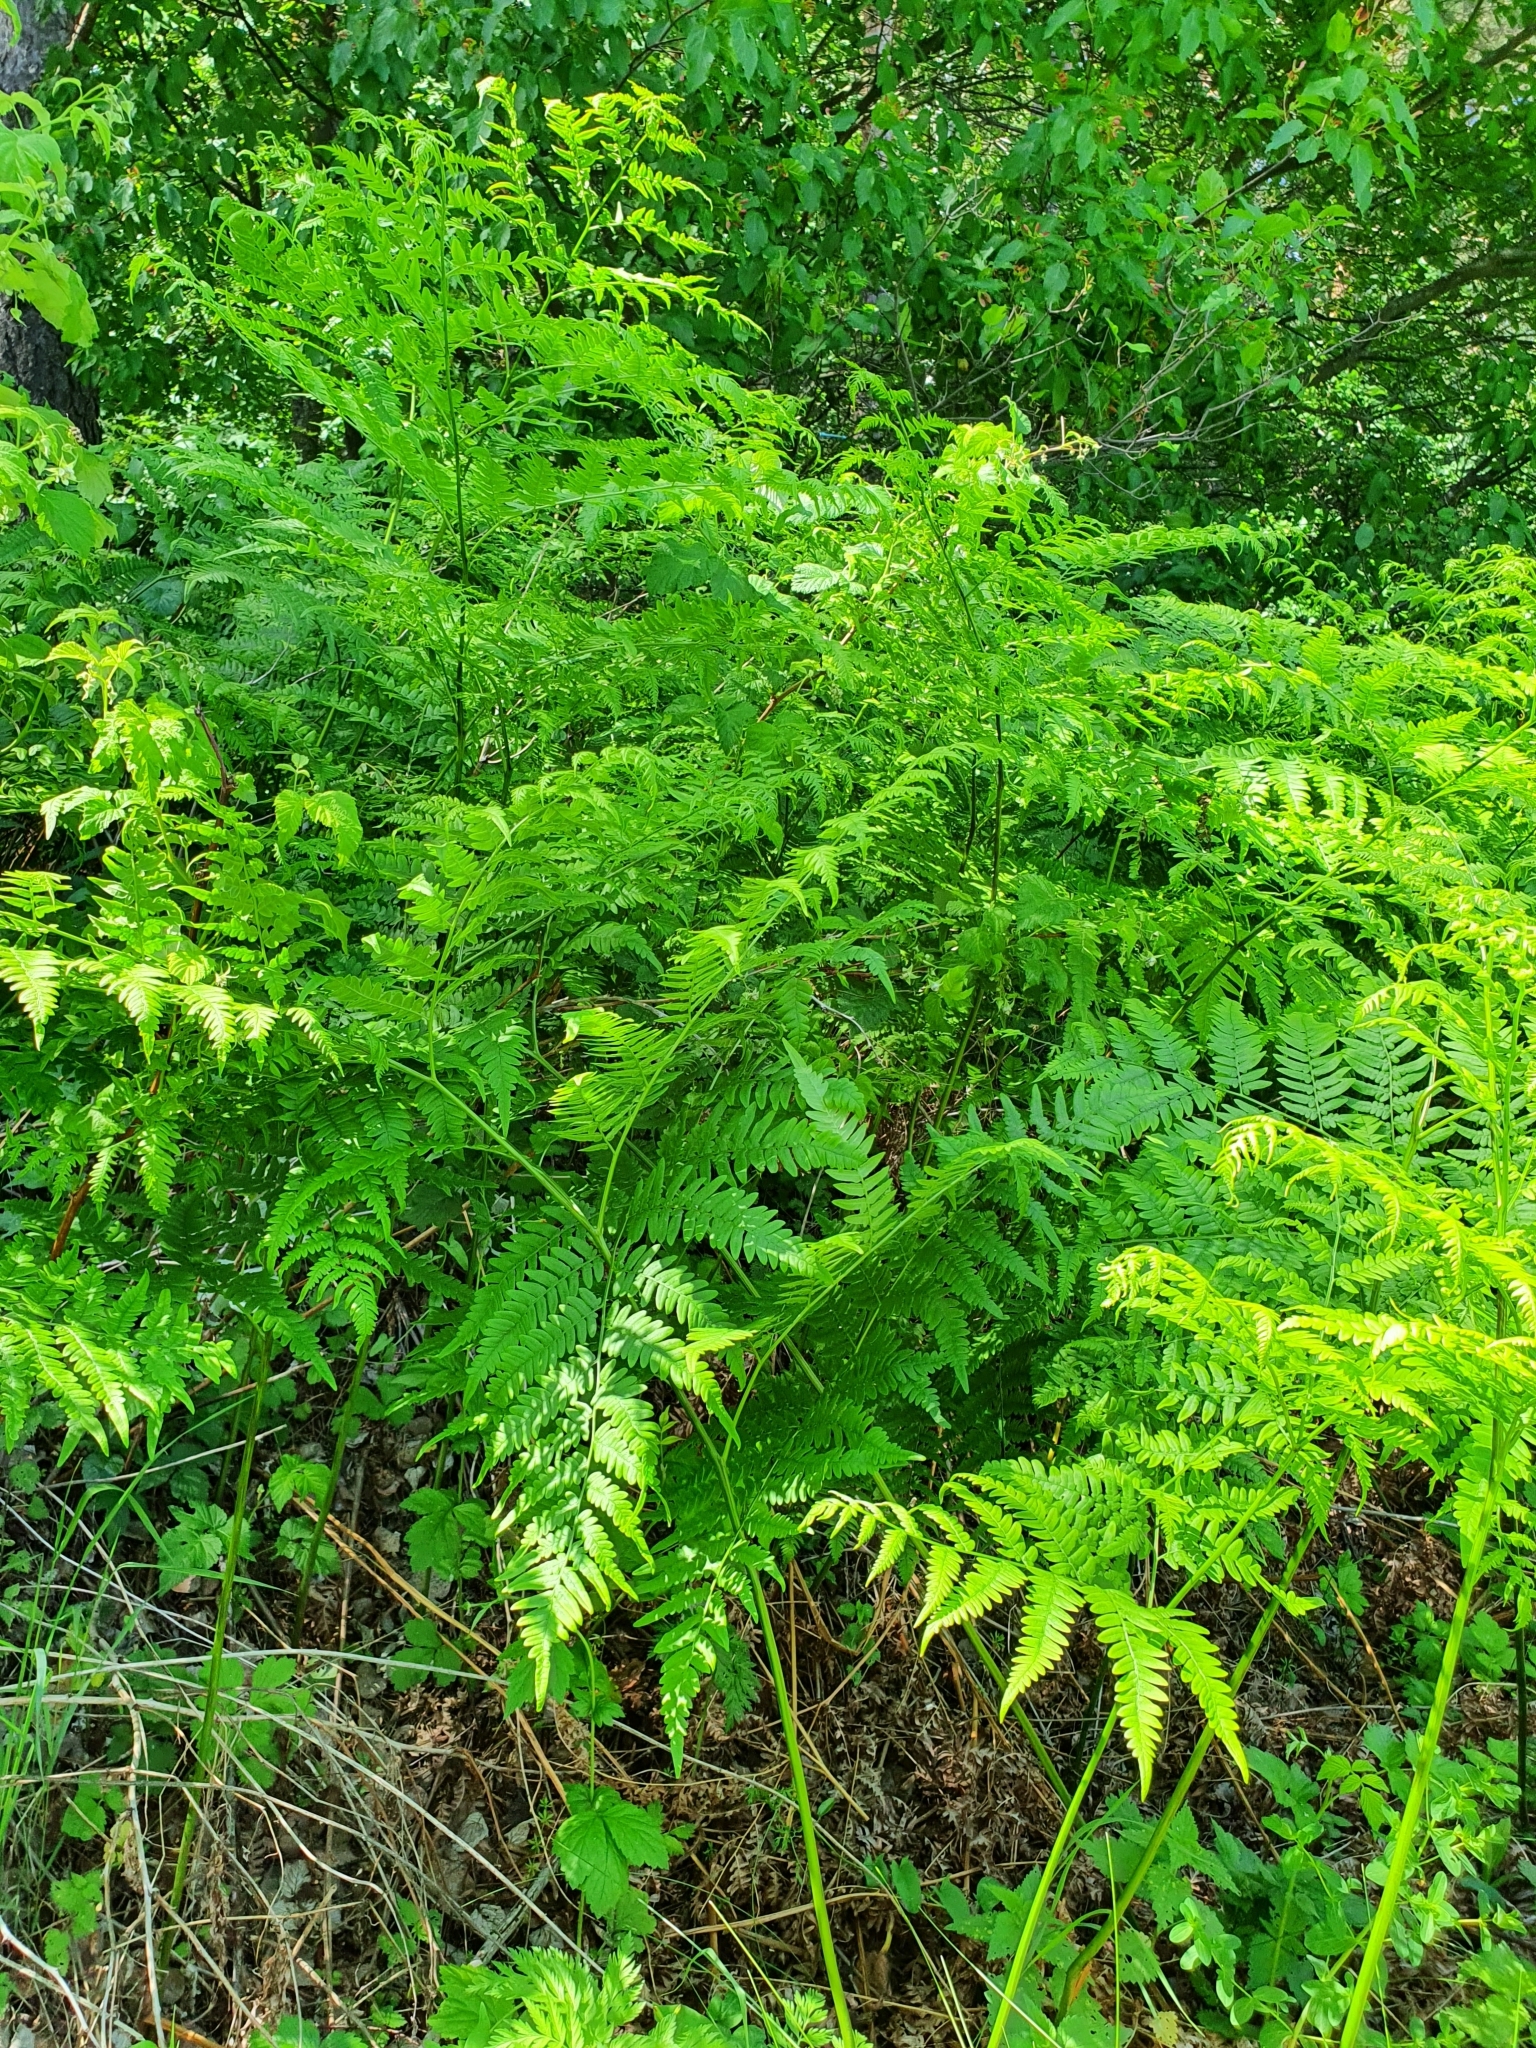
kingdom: Plantae
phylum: Tracheophyta
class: Polypodiopsida
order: Polypodiales
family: Dennstaedtiaceae
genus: Pteridium
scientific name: Pteridium aquilinum
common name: Bracken
